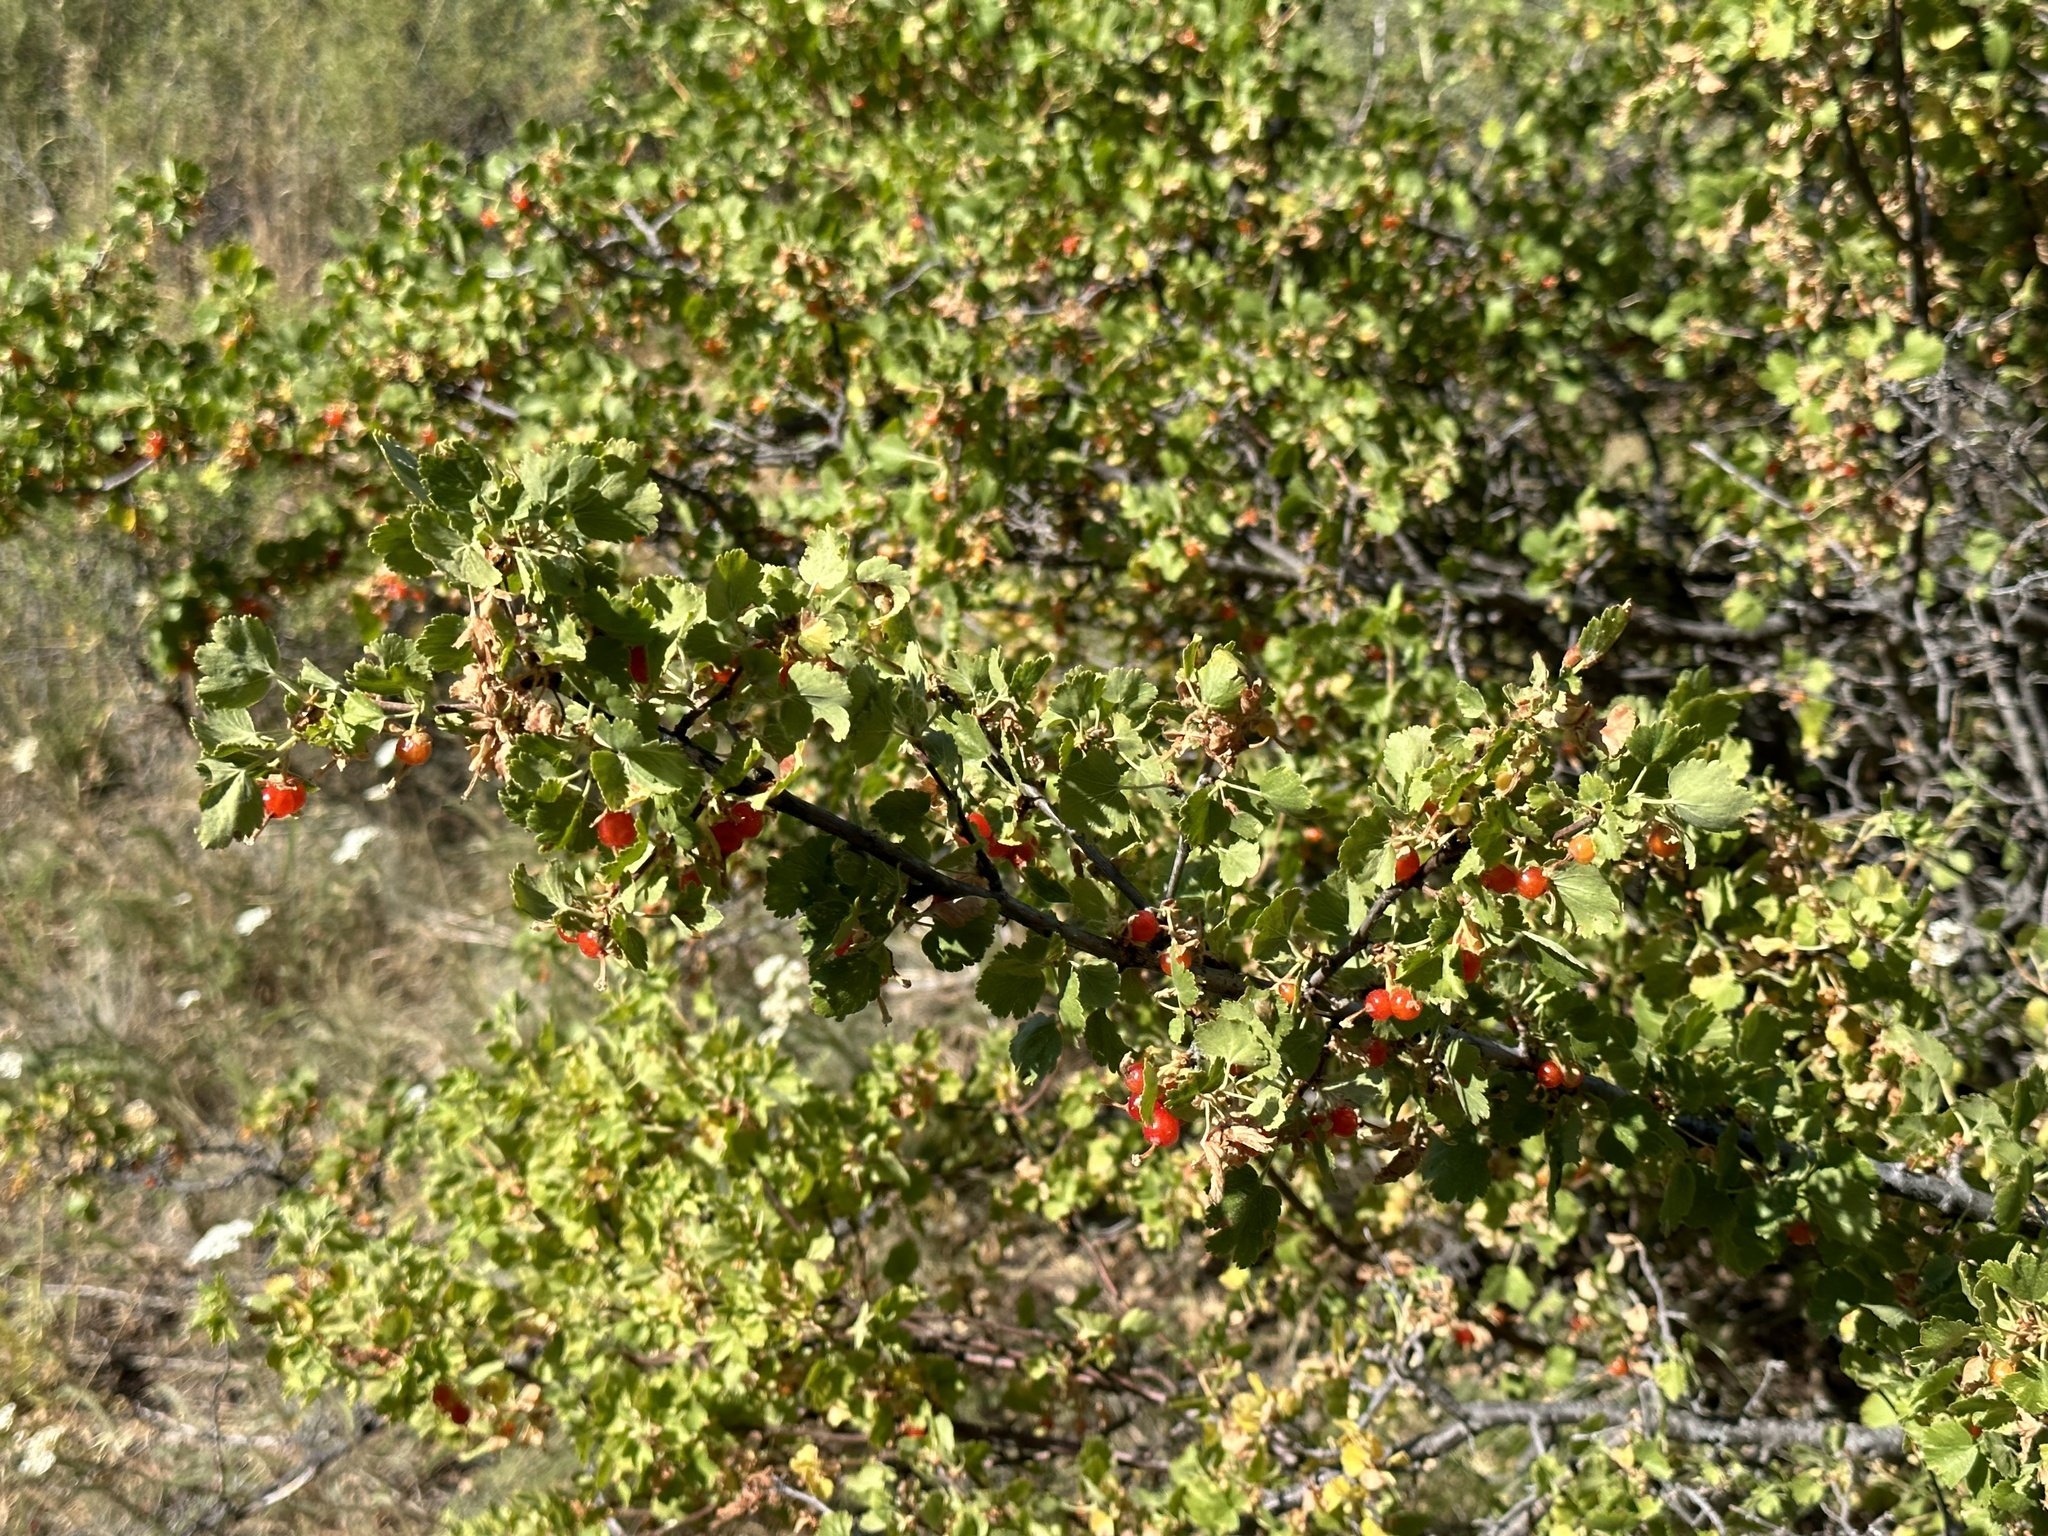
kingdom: Plantae
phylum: Tracheophyta
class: Magnoliopsida
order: Saxifragales
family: Grossulariaceae
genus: Ribes
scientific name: Ribes cereum
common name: Wax currant
